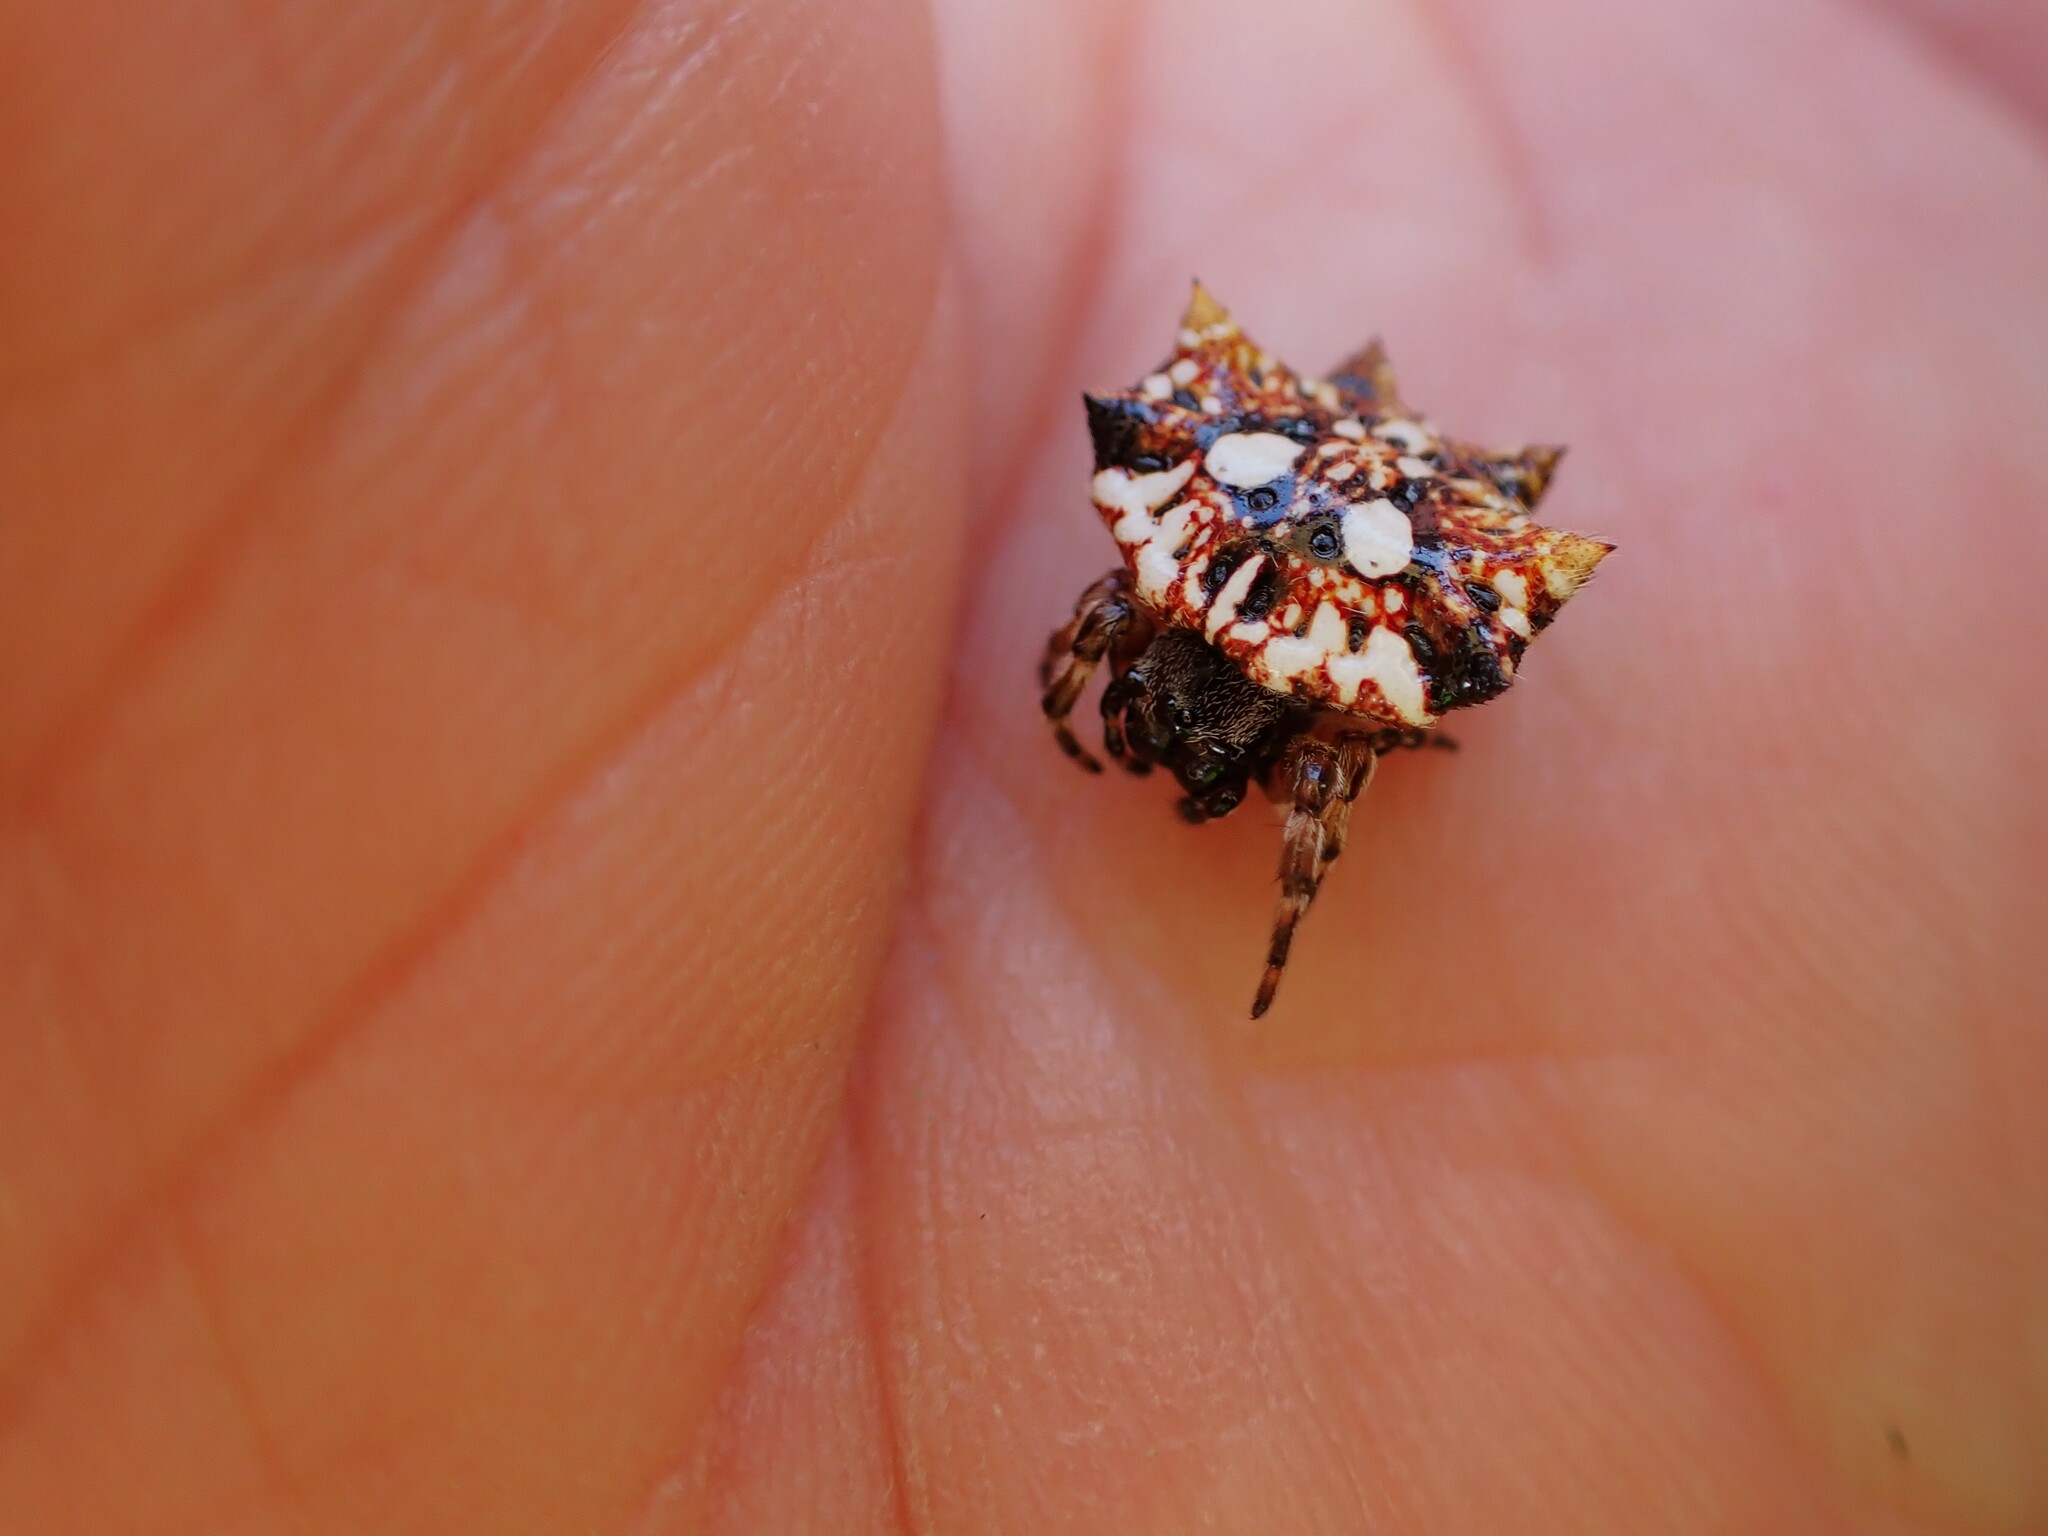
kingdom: Animalia
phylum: Arthropoda
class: Arachnida
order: Araneae
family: Araneidae
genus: Thelacantha
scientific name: Thelacantha brevispina
